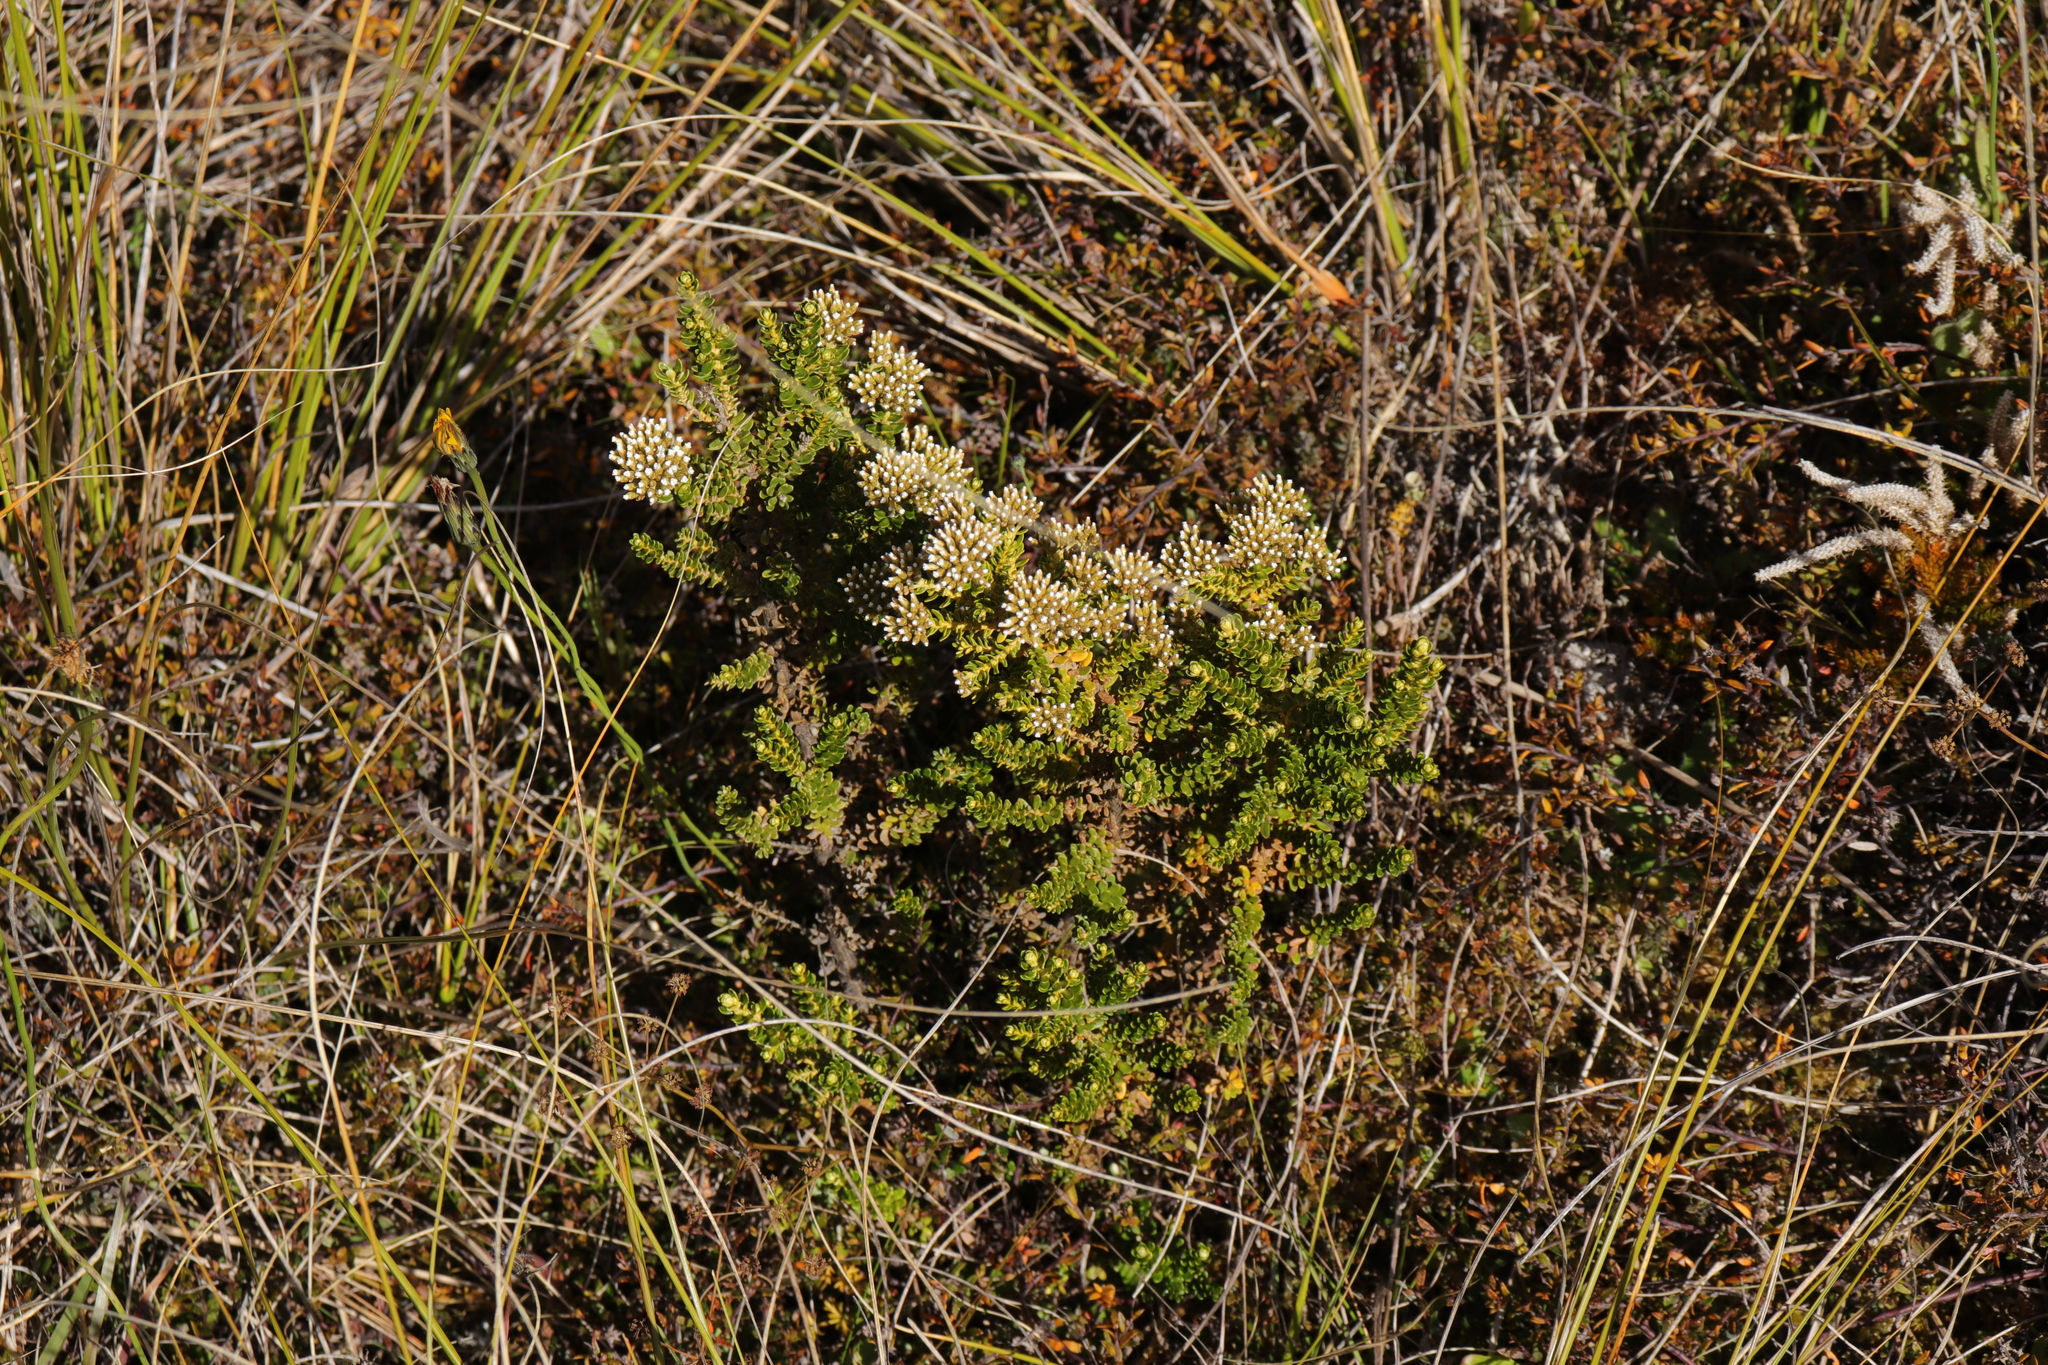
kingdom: Plantae
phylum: Tracheophyta
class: Magnoliopsida
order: Asterales
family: Asteraceae
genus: Ozothamnus
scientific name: Ozothamnus leptophyllus
